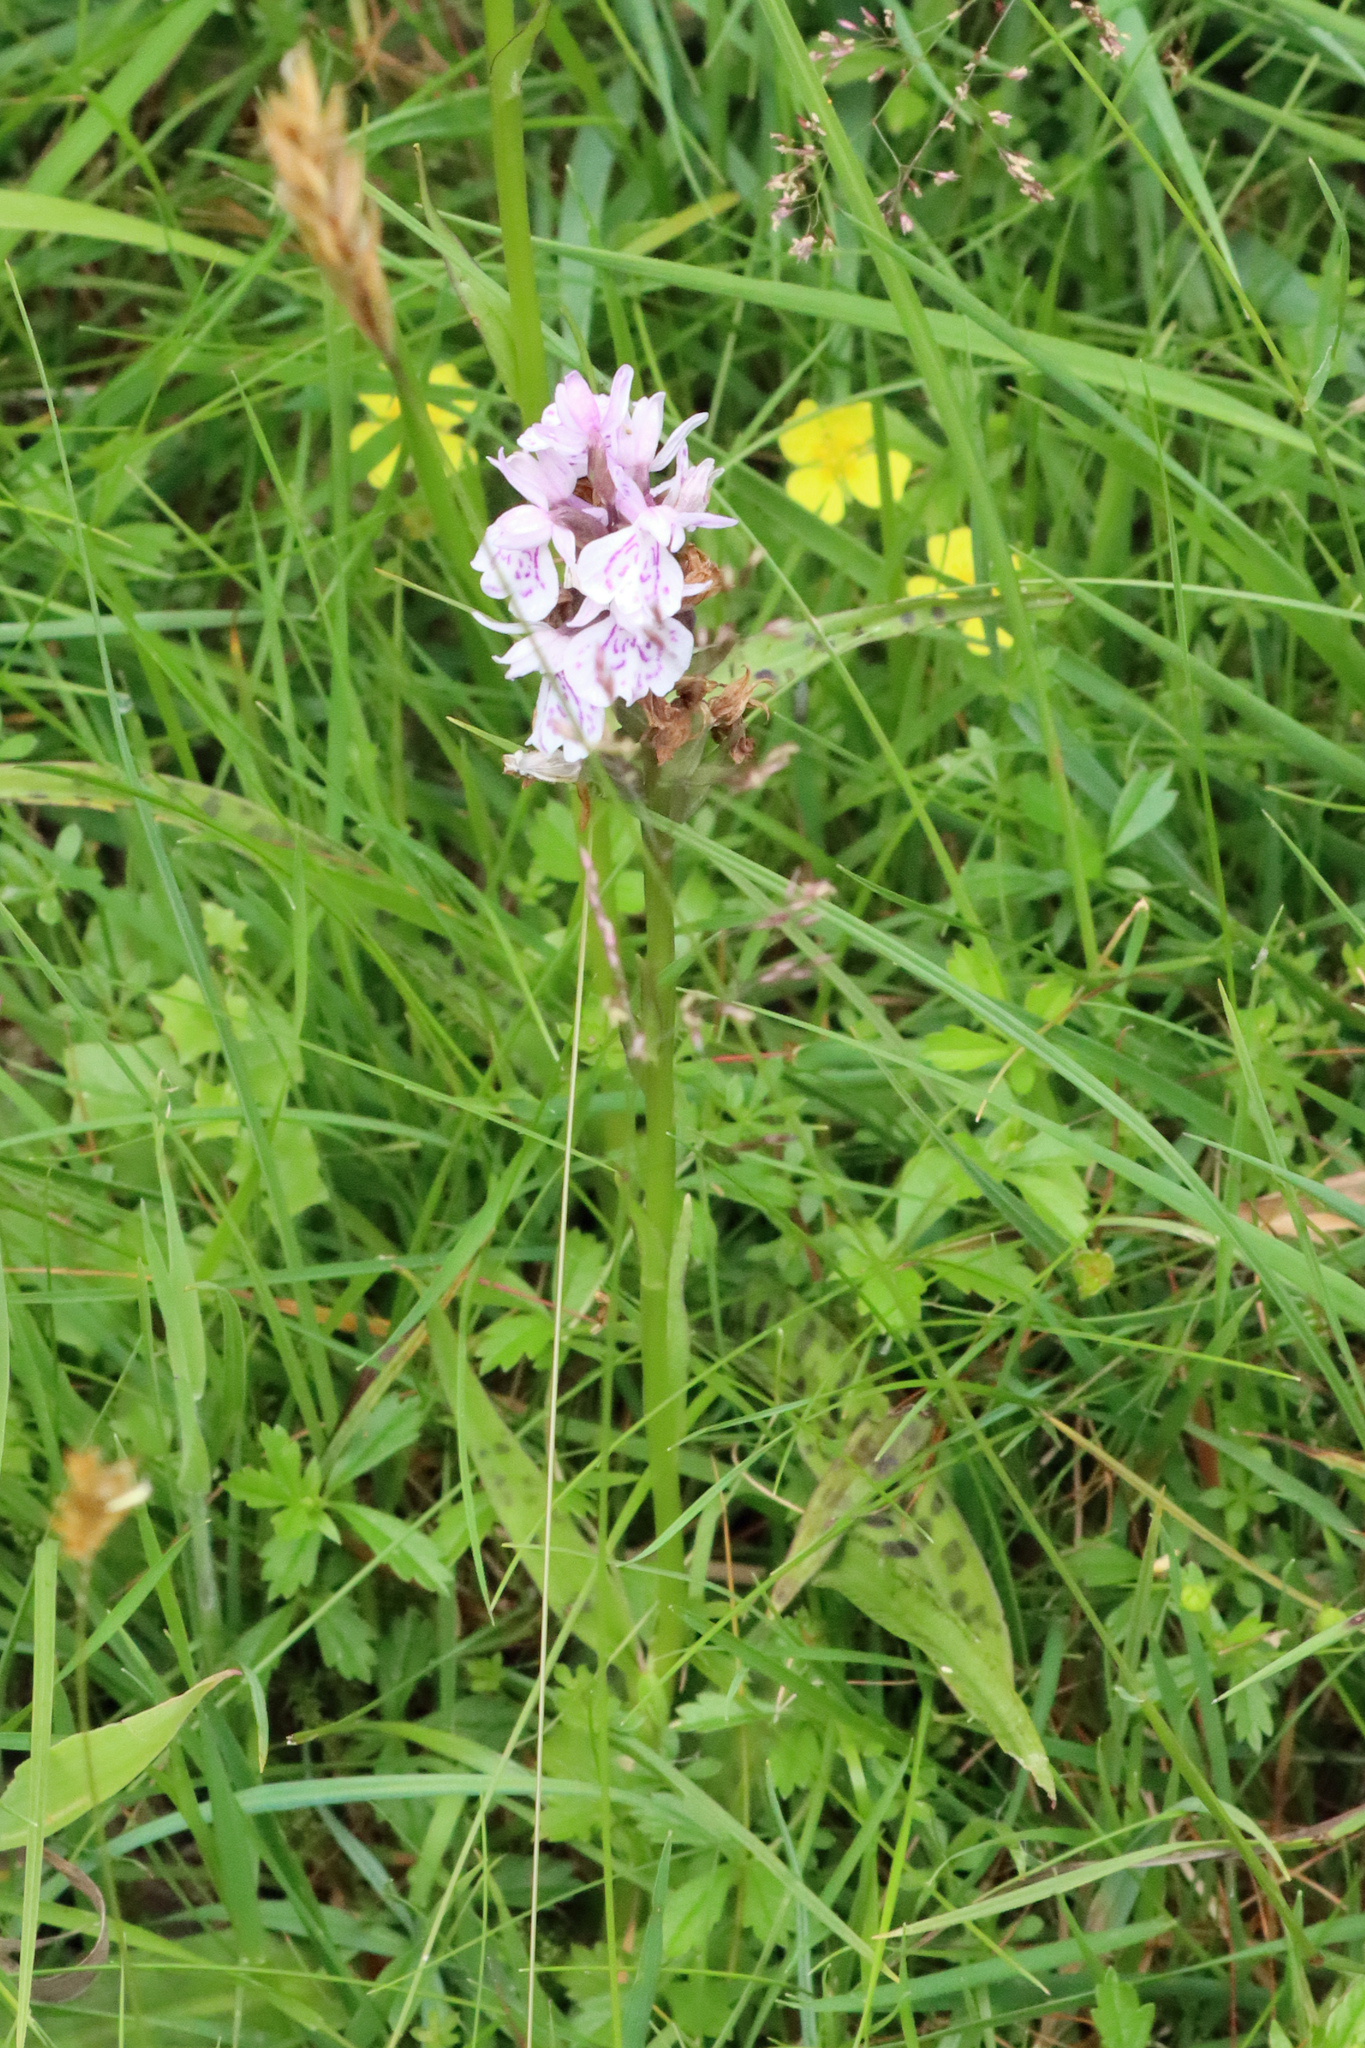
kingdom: Plantae
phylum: Tracheophyta
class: Liliopsida
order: Asparagales
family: Orchidaceae
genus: Dactylorhiza
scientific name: Dactylorhiza maculata
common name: Heath spotted-orchid
